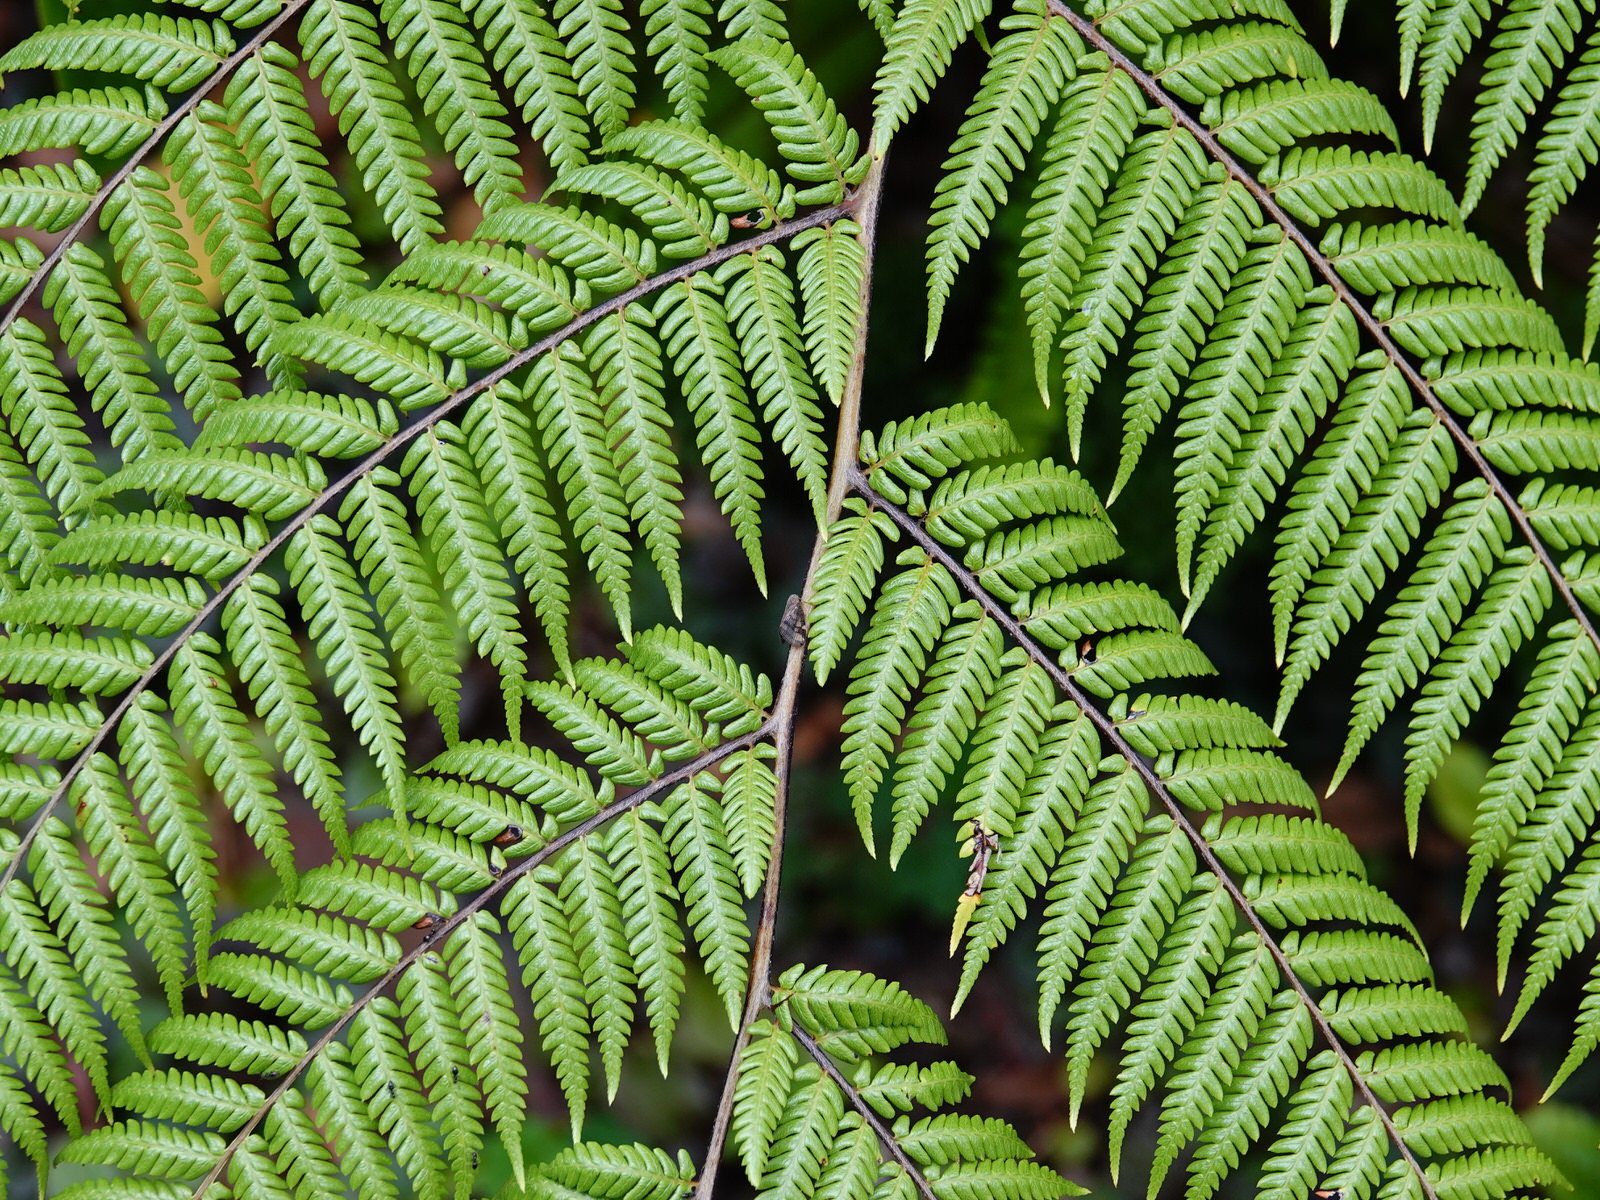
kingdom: Plantae
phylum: Tracheophyta
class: Polypodiopsida
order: Cyatheales
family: Cyatheaceae
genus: Sphaeropteris
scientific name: Sphaeropteris medullaris
